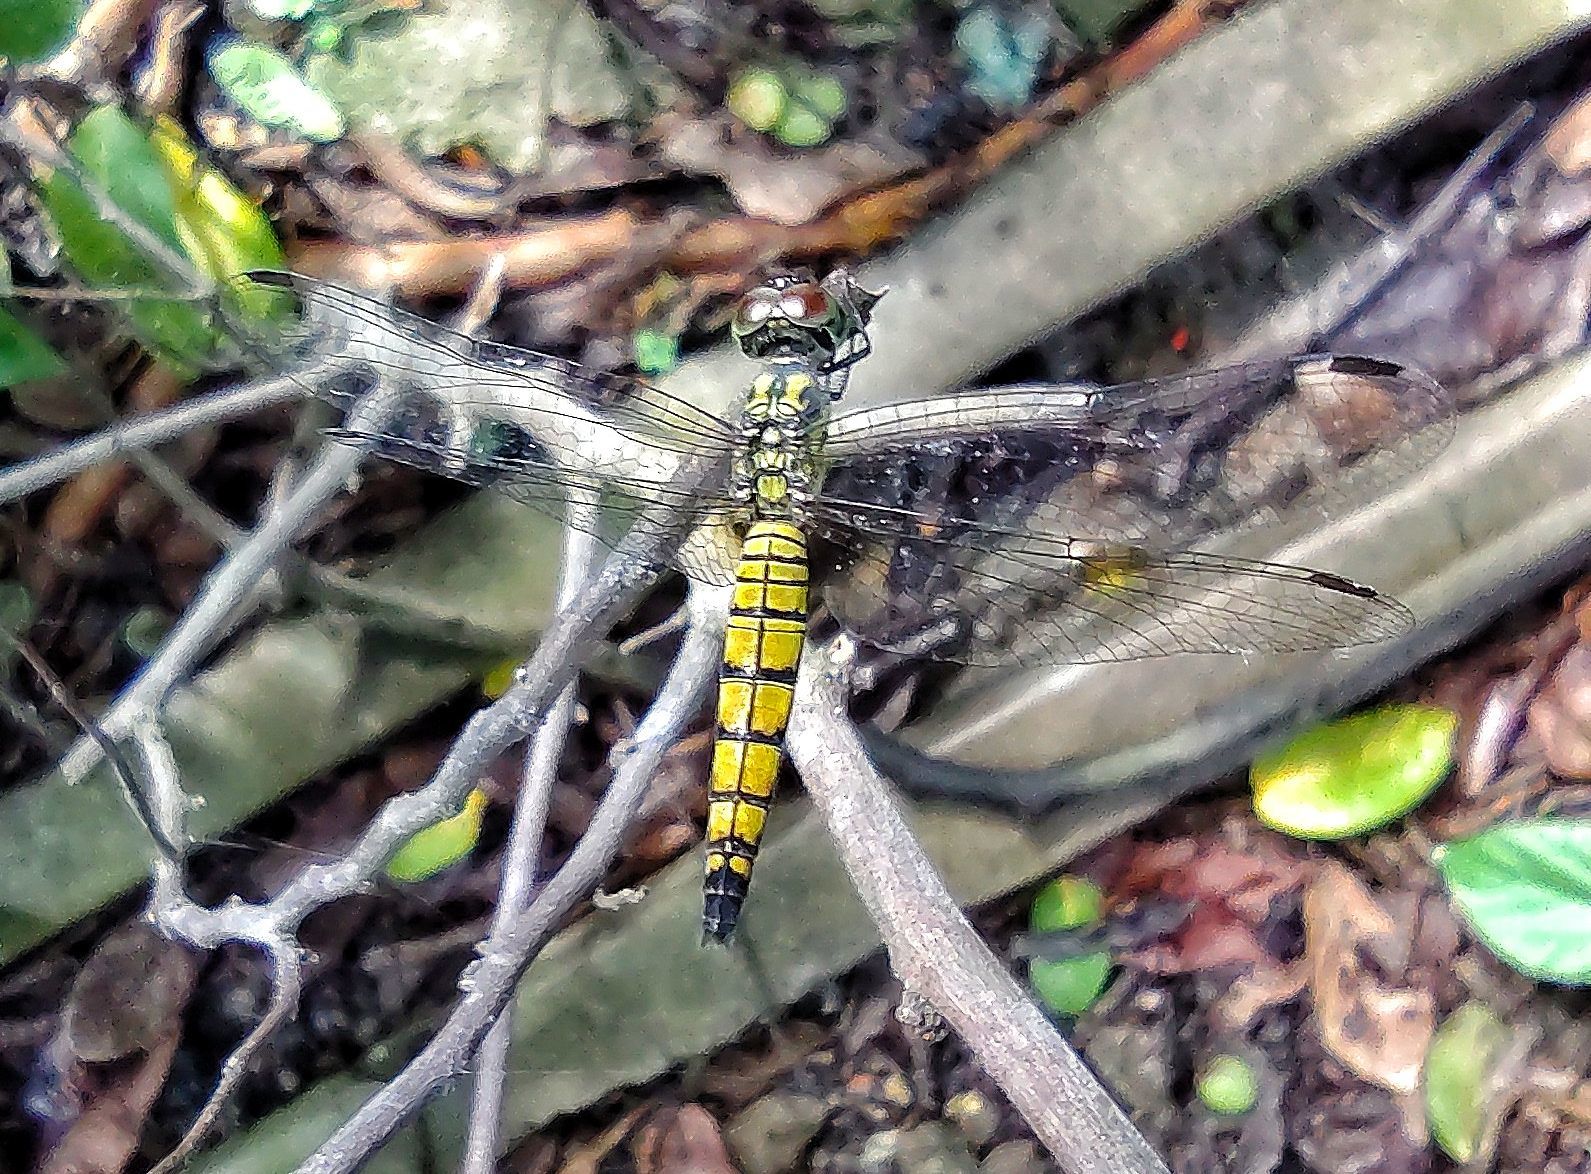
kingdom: Animalia
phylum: Arthropoda
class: Insecta
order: Odonata
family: Libellulidae
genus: Brachydiplax
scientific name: Brachydiplax chalybea
